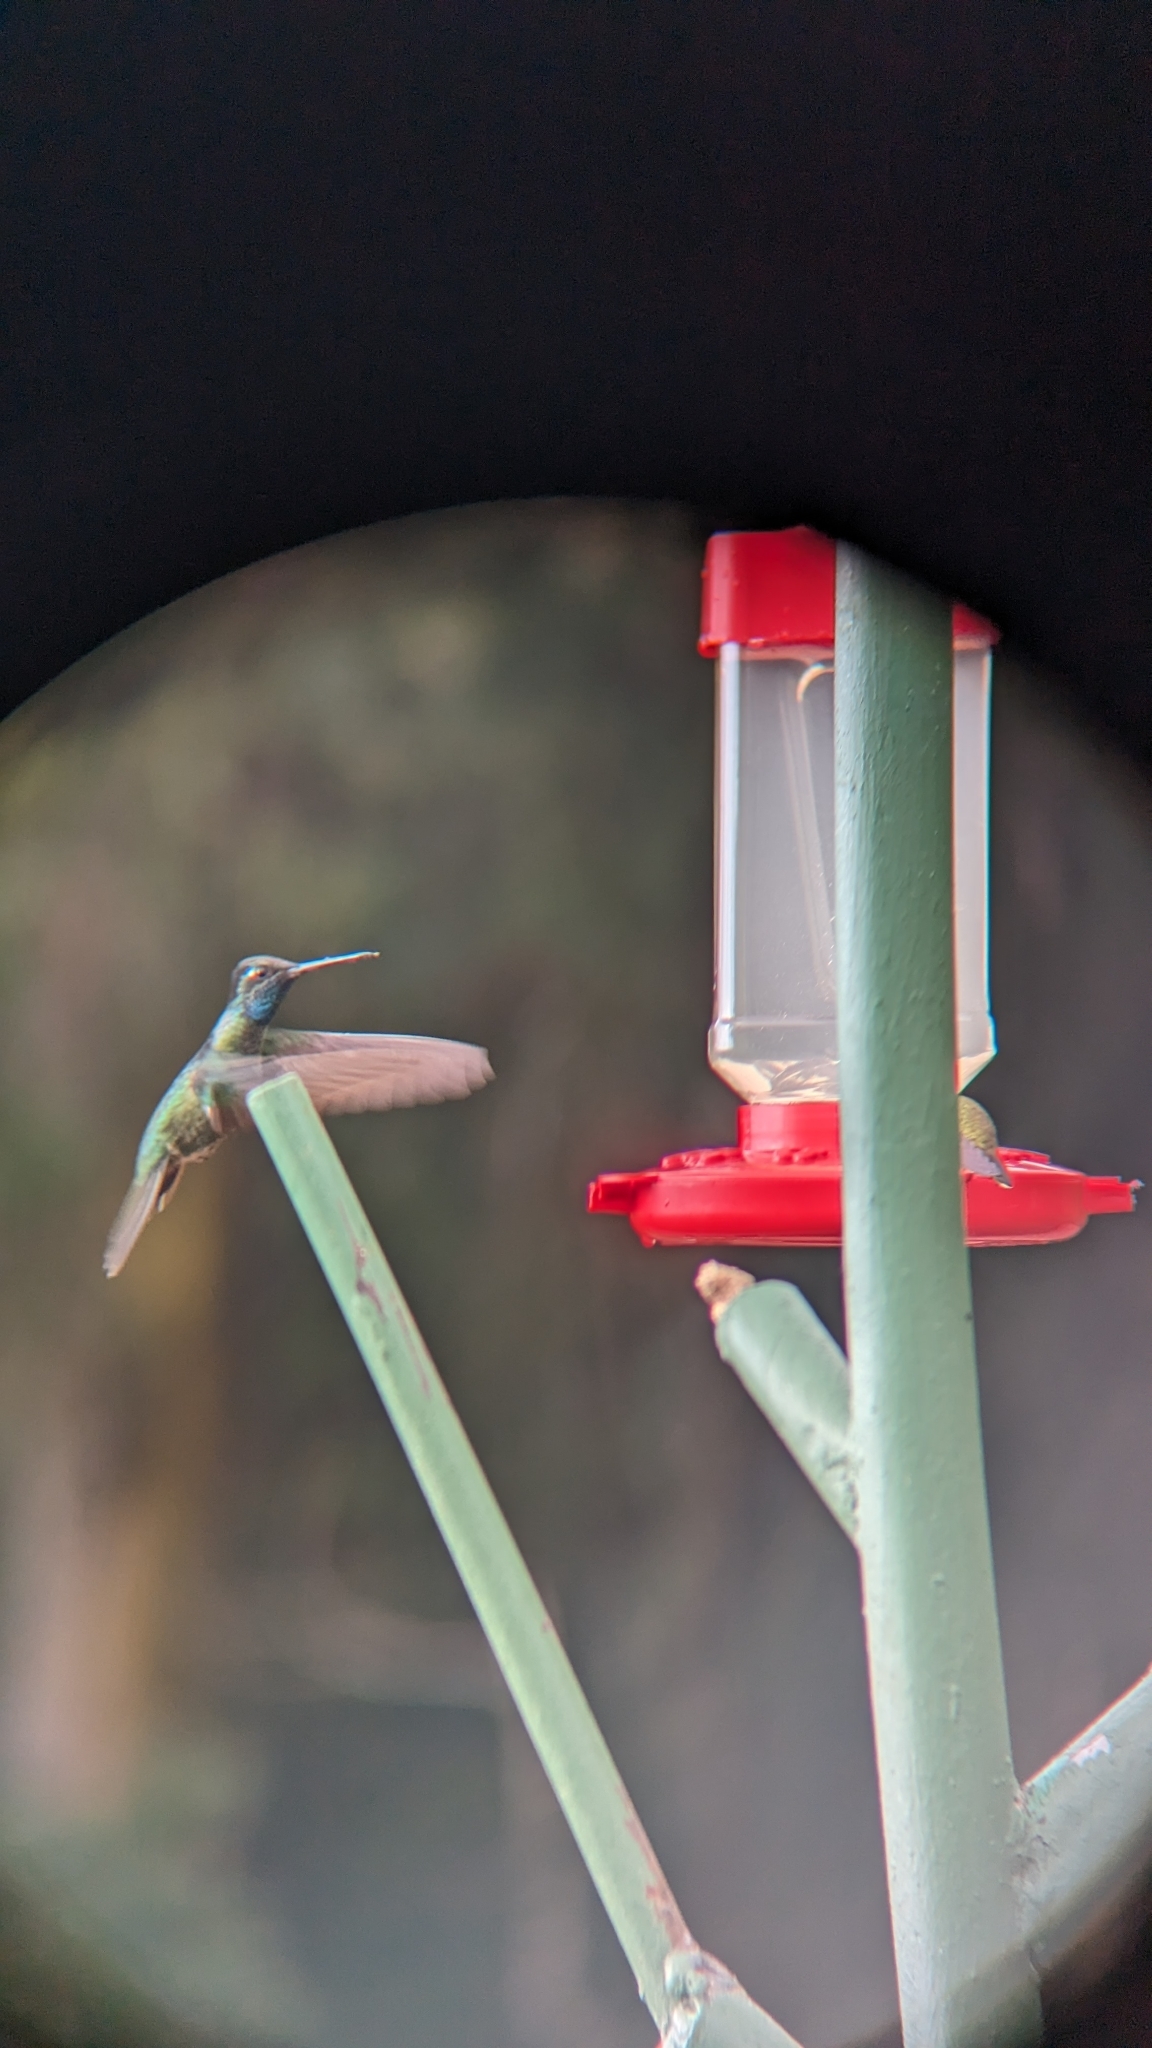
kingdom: Animalia
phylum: Chordata
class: Aves
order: Apodiformes
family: Trochilidae
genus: Eugenes
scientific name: Eugenes spectabilis
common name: Talamanca hummingbird
